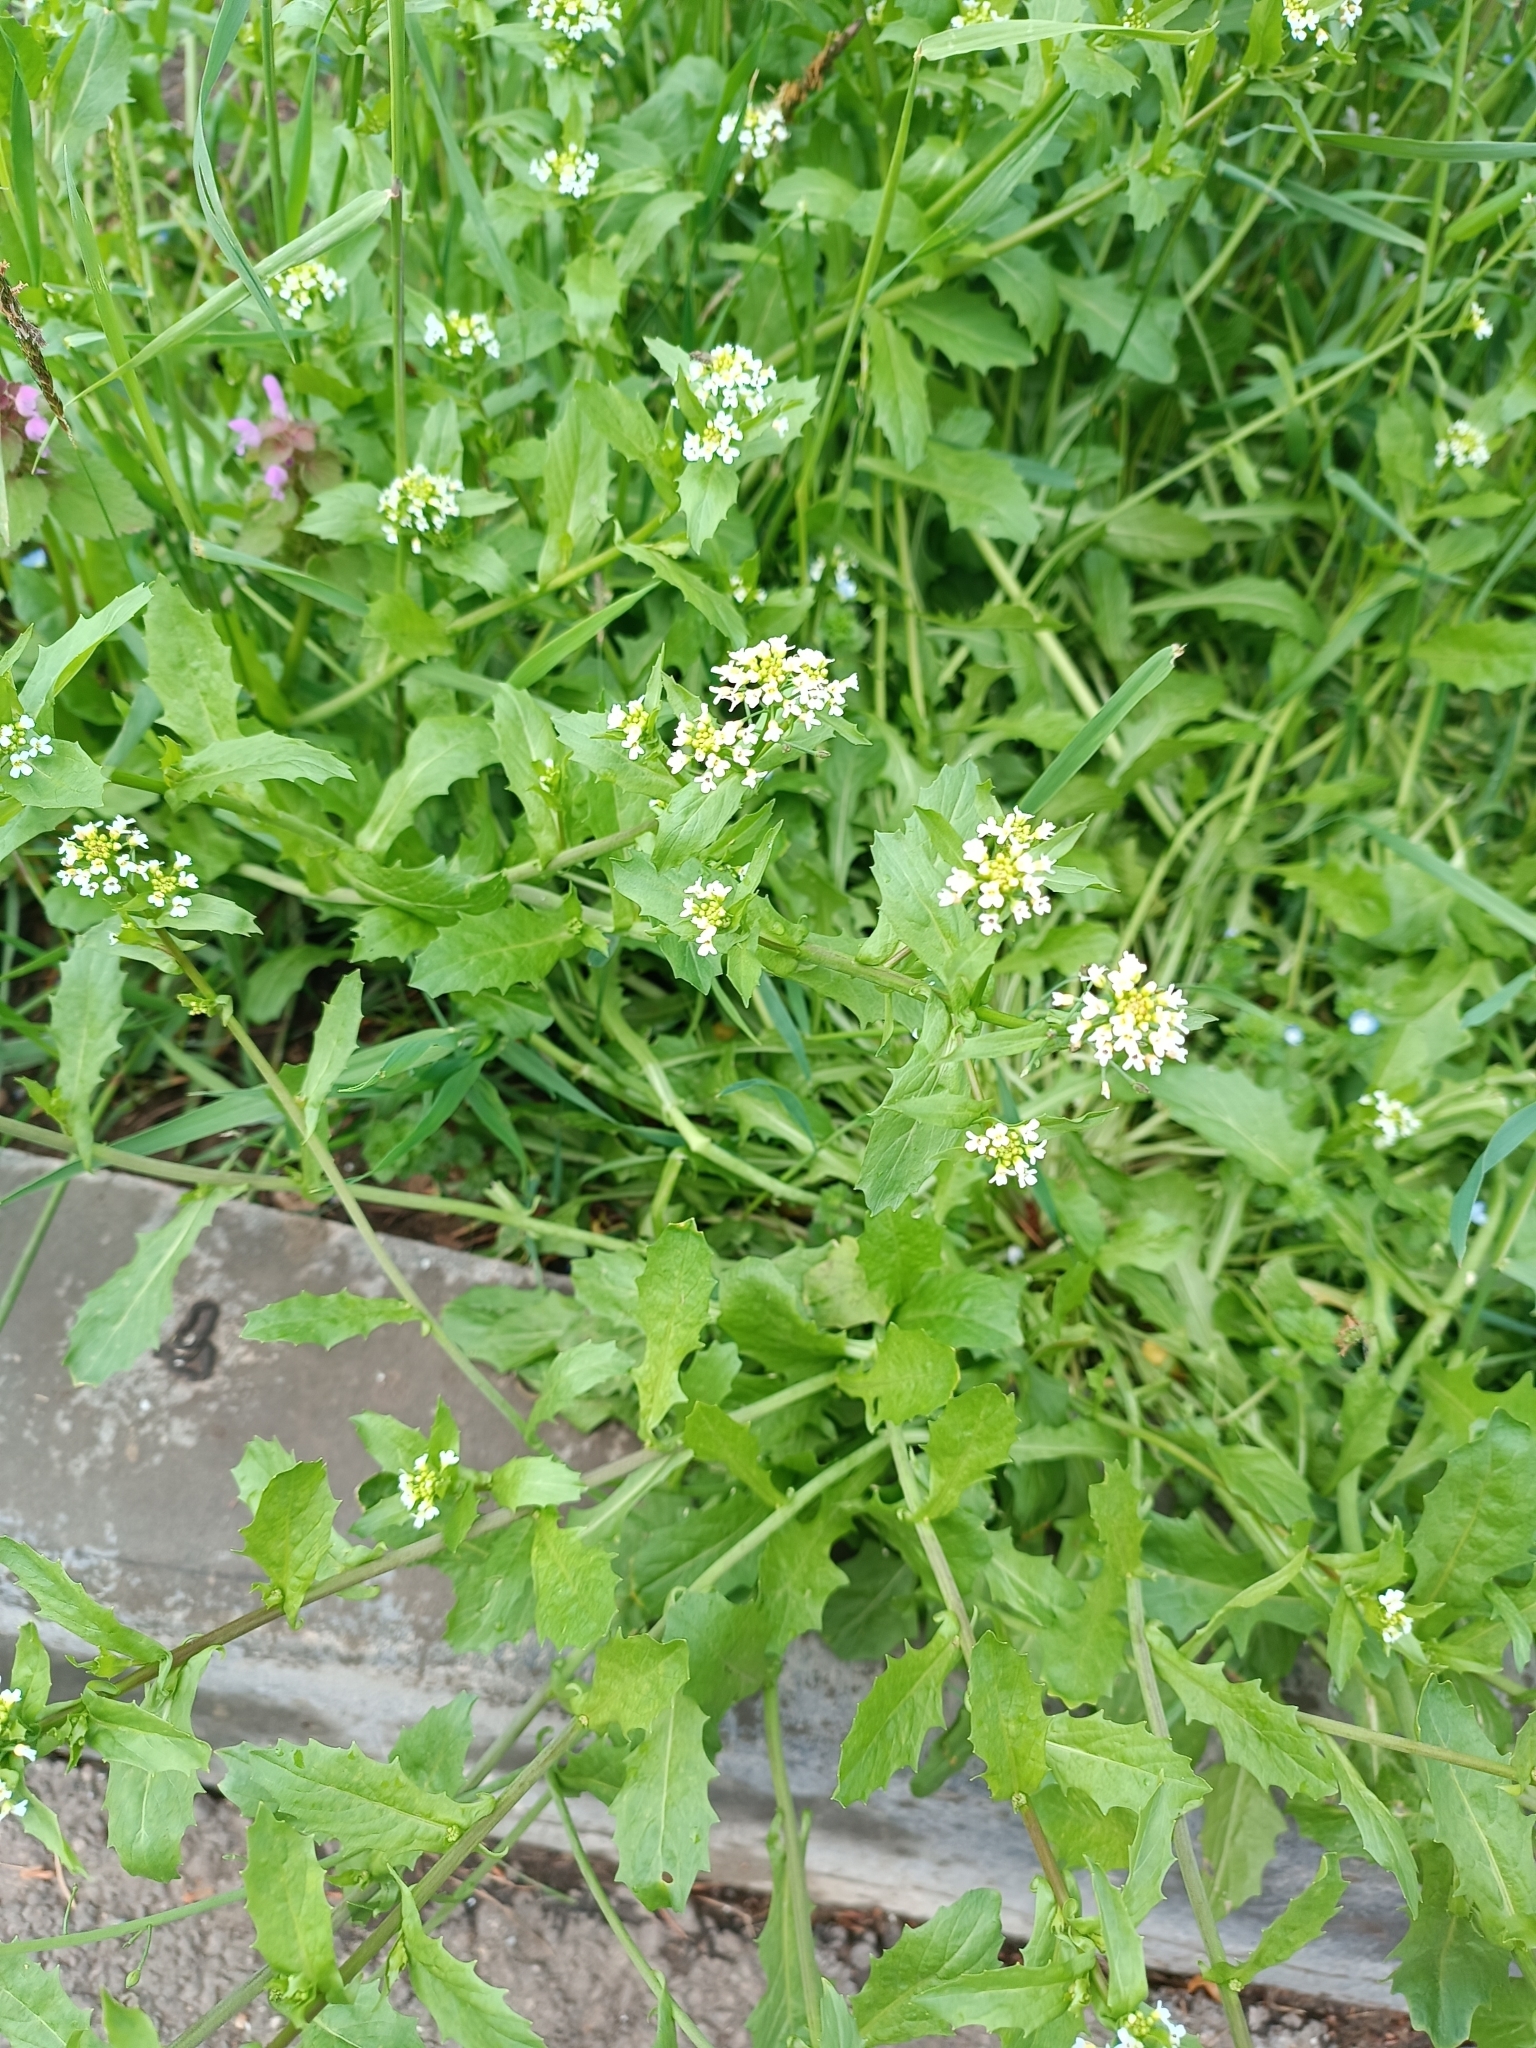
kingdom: Plantae
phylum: Tracheophyta
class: Magnoliopsida
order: Brassicales
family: Brassicaceae
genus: Calepina
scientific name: Calepina irregularis
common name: White ballmustard
